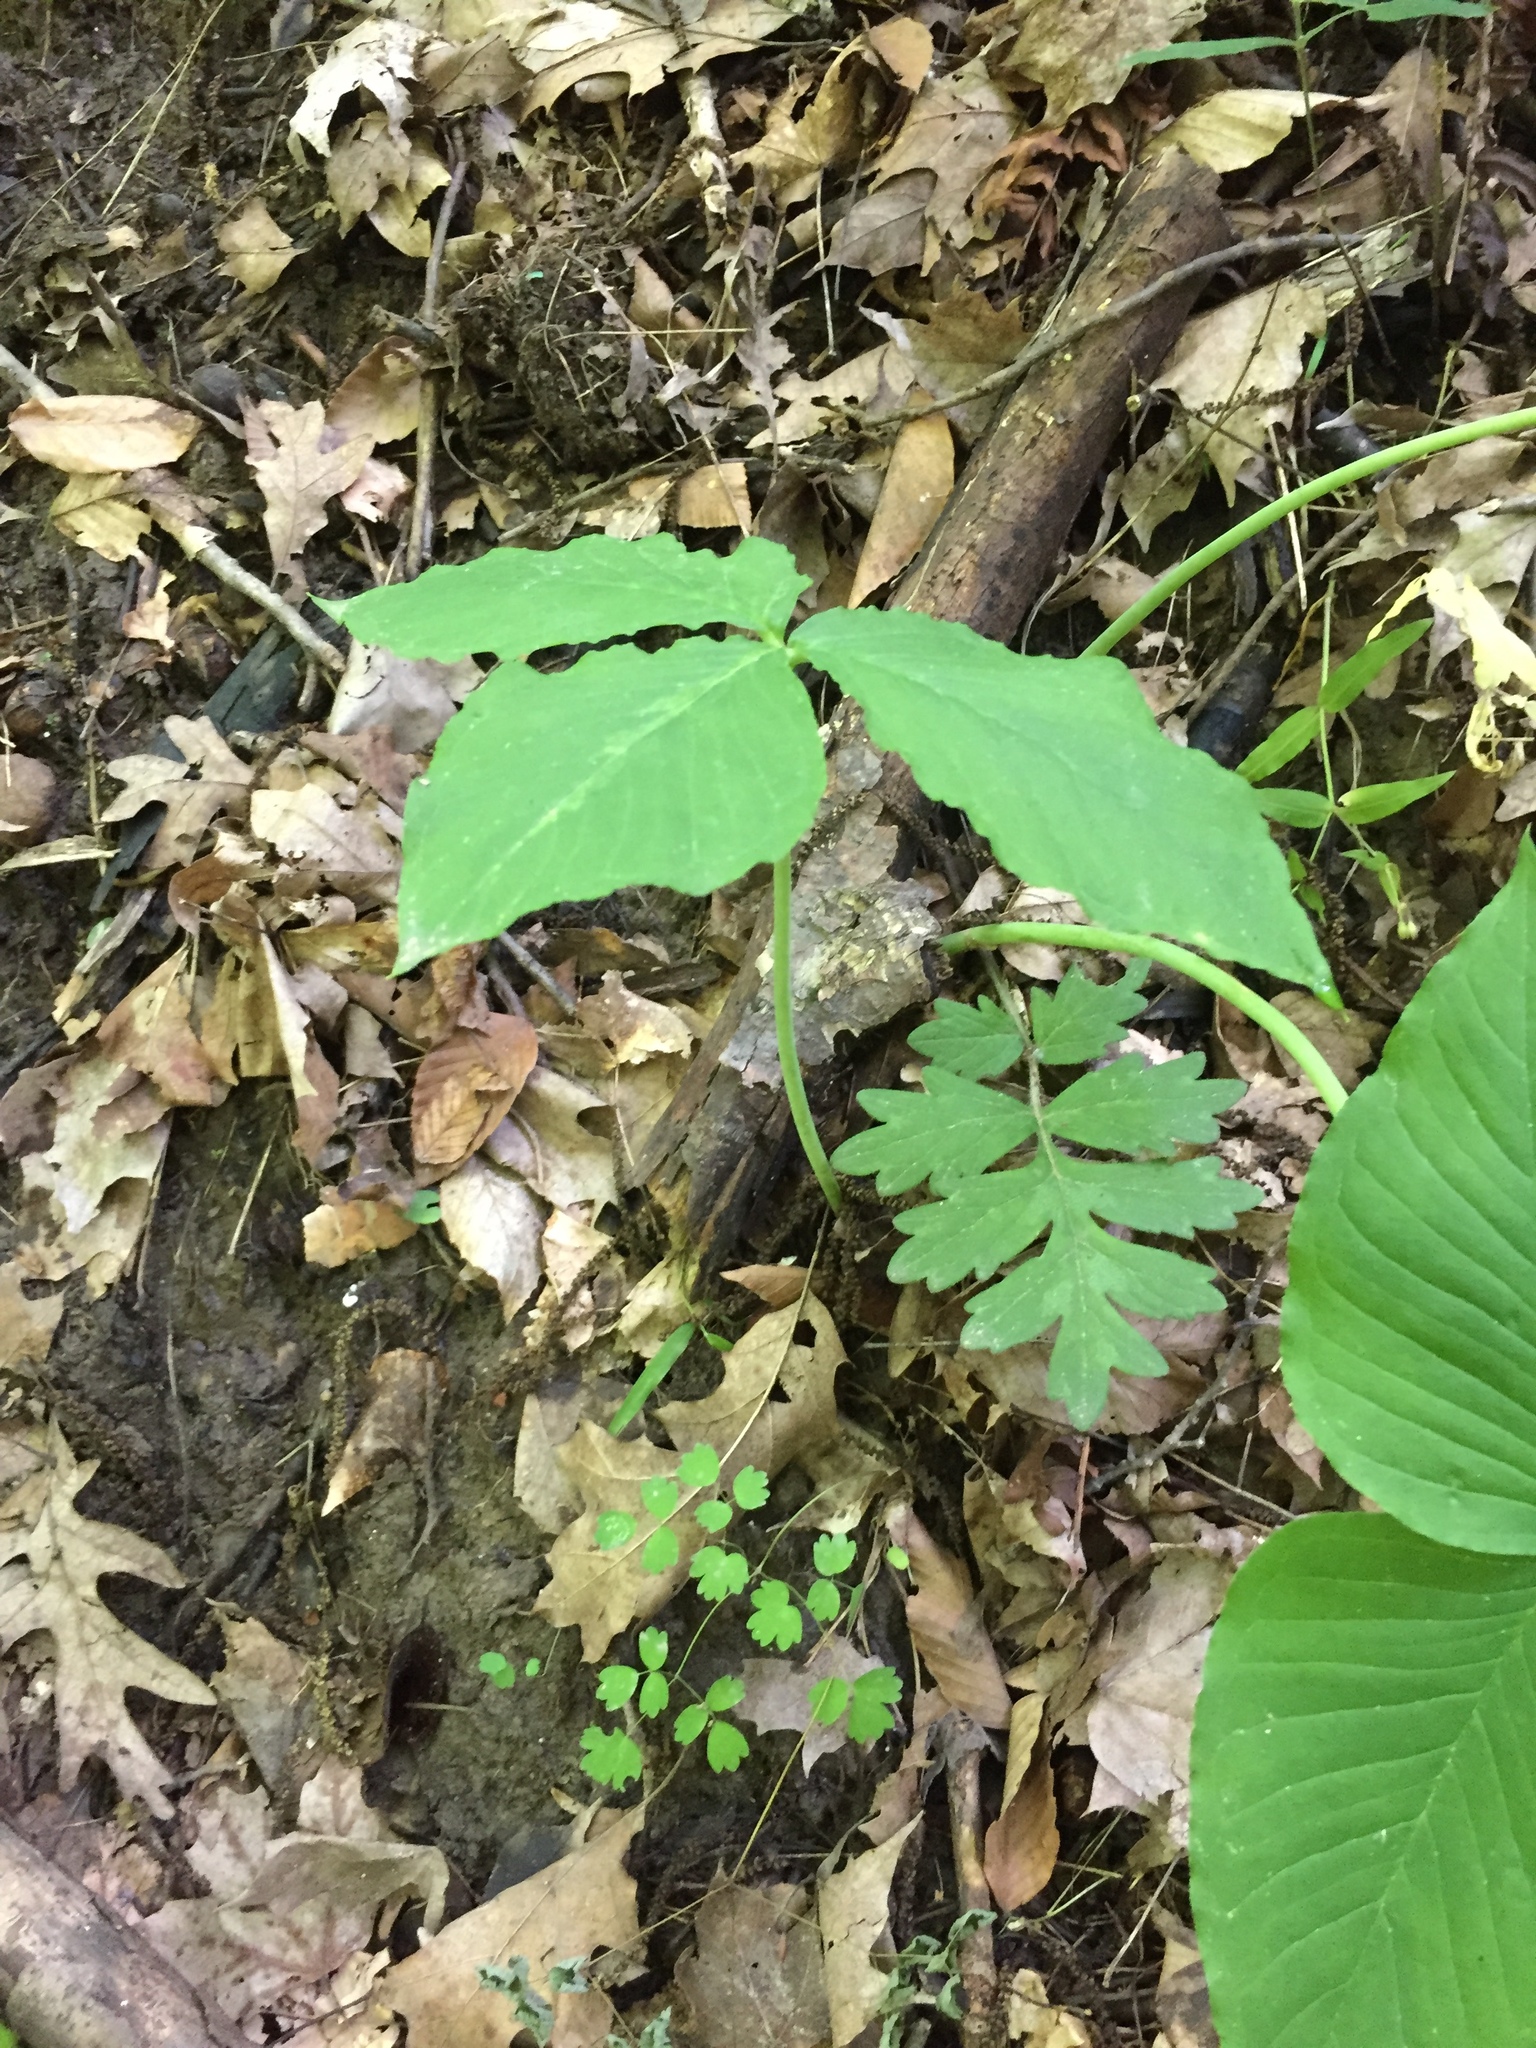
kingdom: Plantae
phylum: Tracheophyta
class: Liliopsida
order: Alismatales
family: Araceae
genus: Arisaema
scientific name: Arisaema triphyllum
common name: Jack-in-the-pulpit
